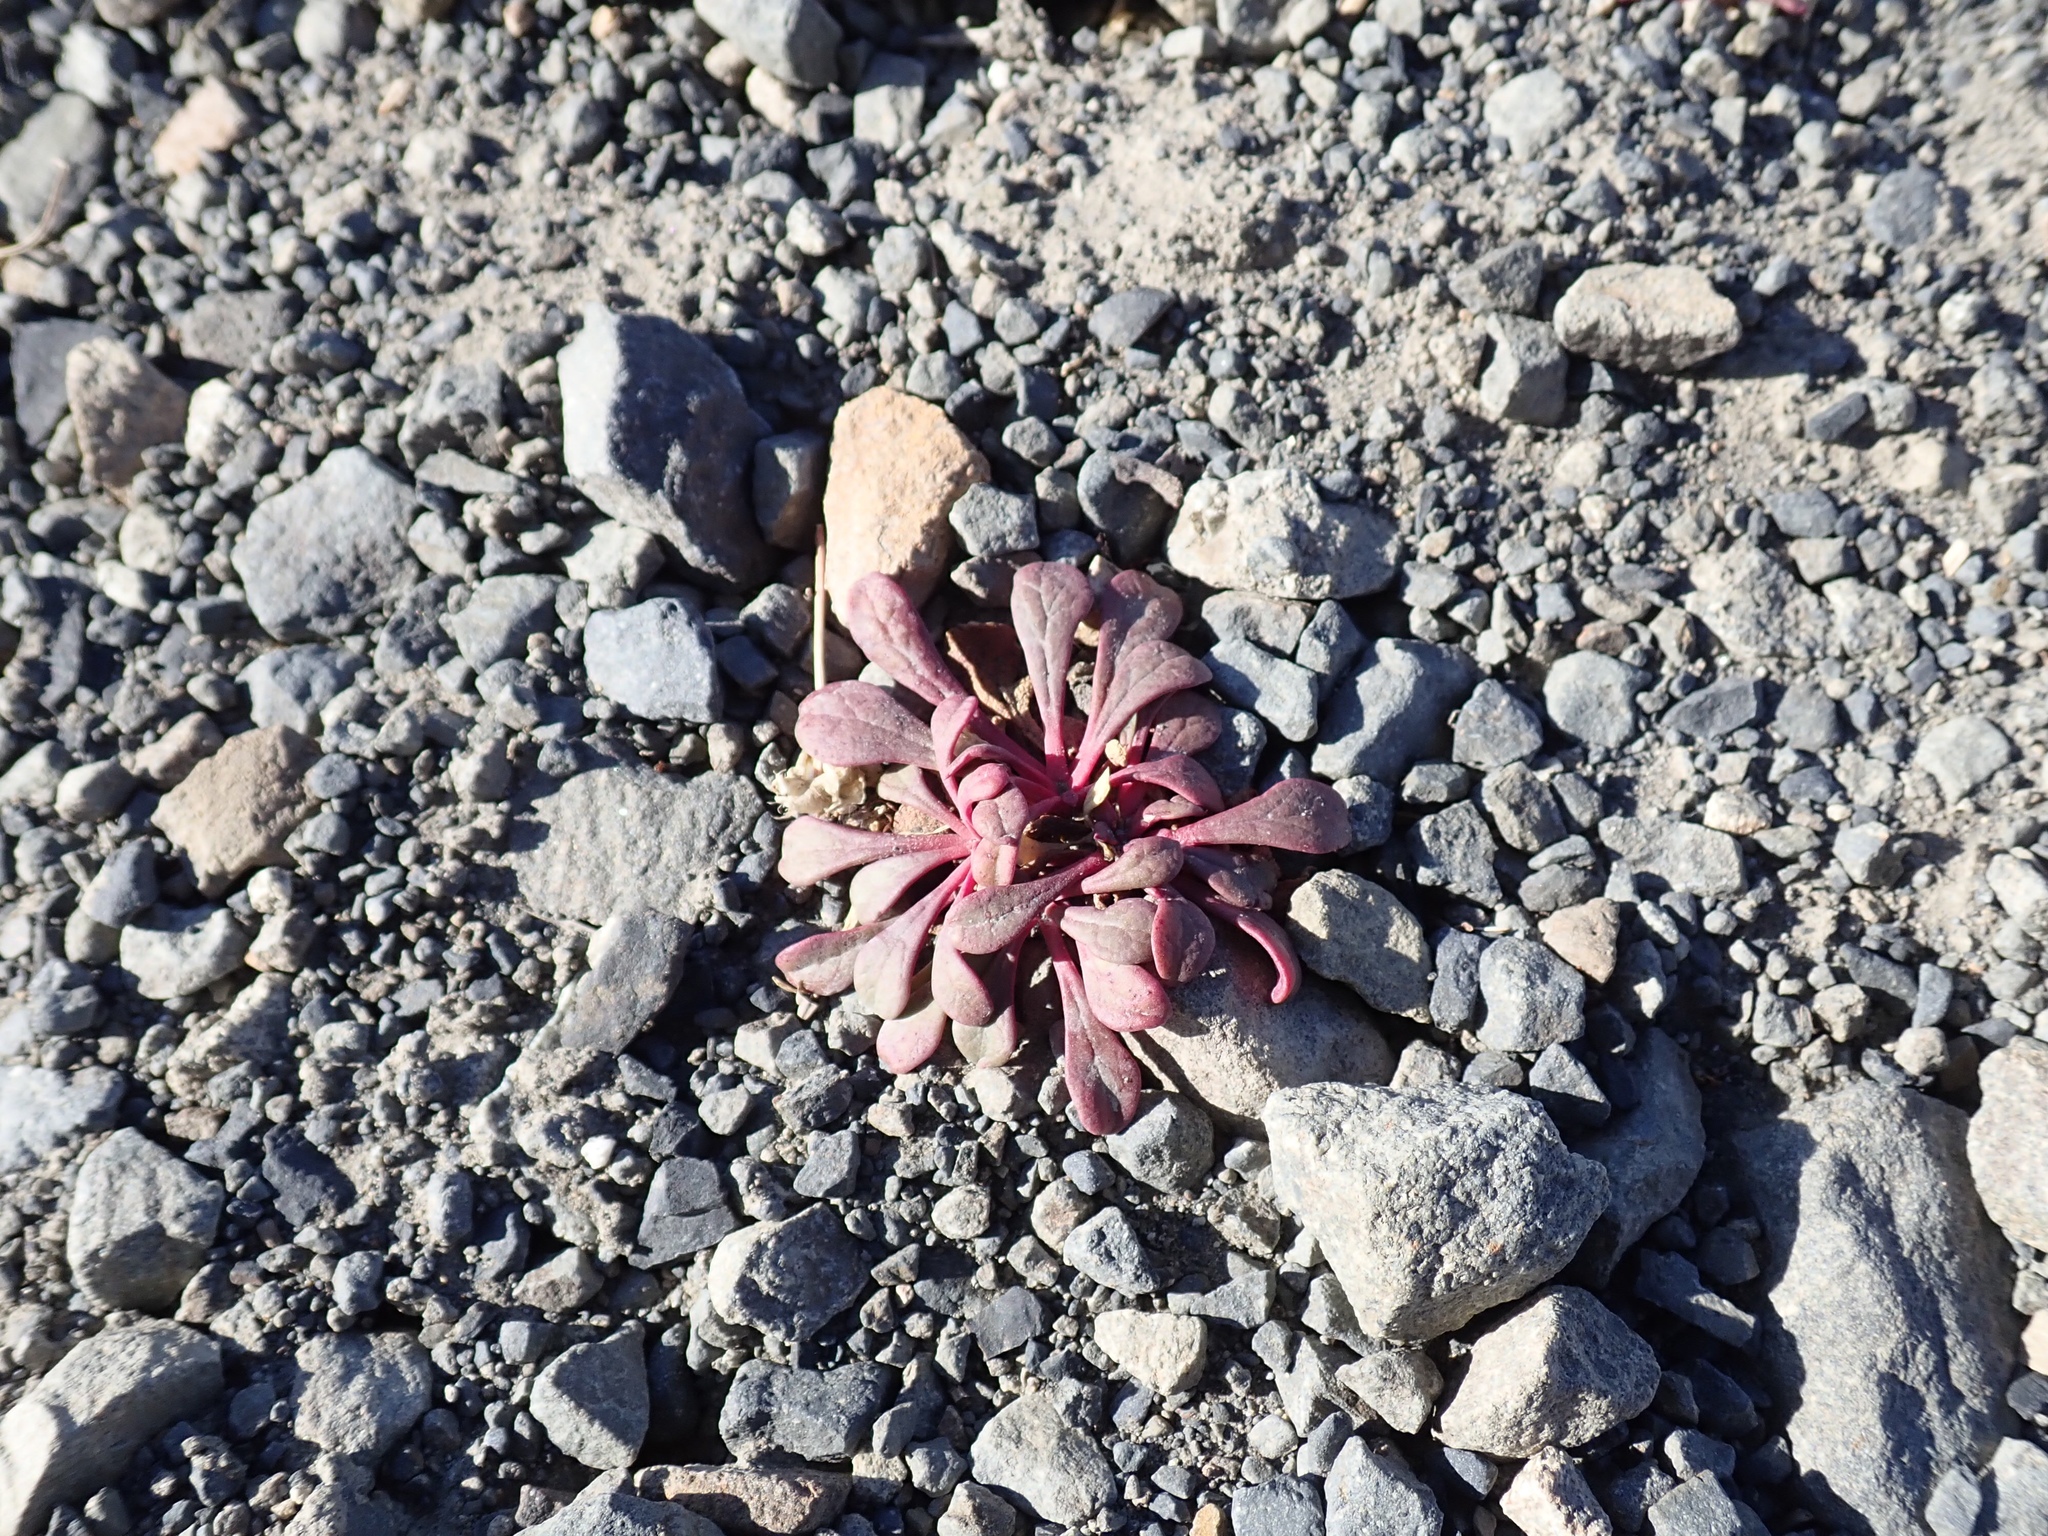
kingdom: Plantae
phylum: Tracheophyta
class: Magnoliopsida
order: Caryophyllales
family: Montiaceae
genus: Calyptridium
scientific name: Calyptridium umbellatum
